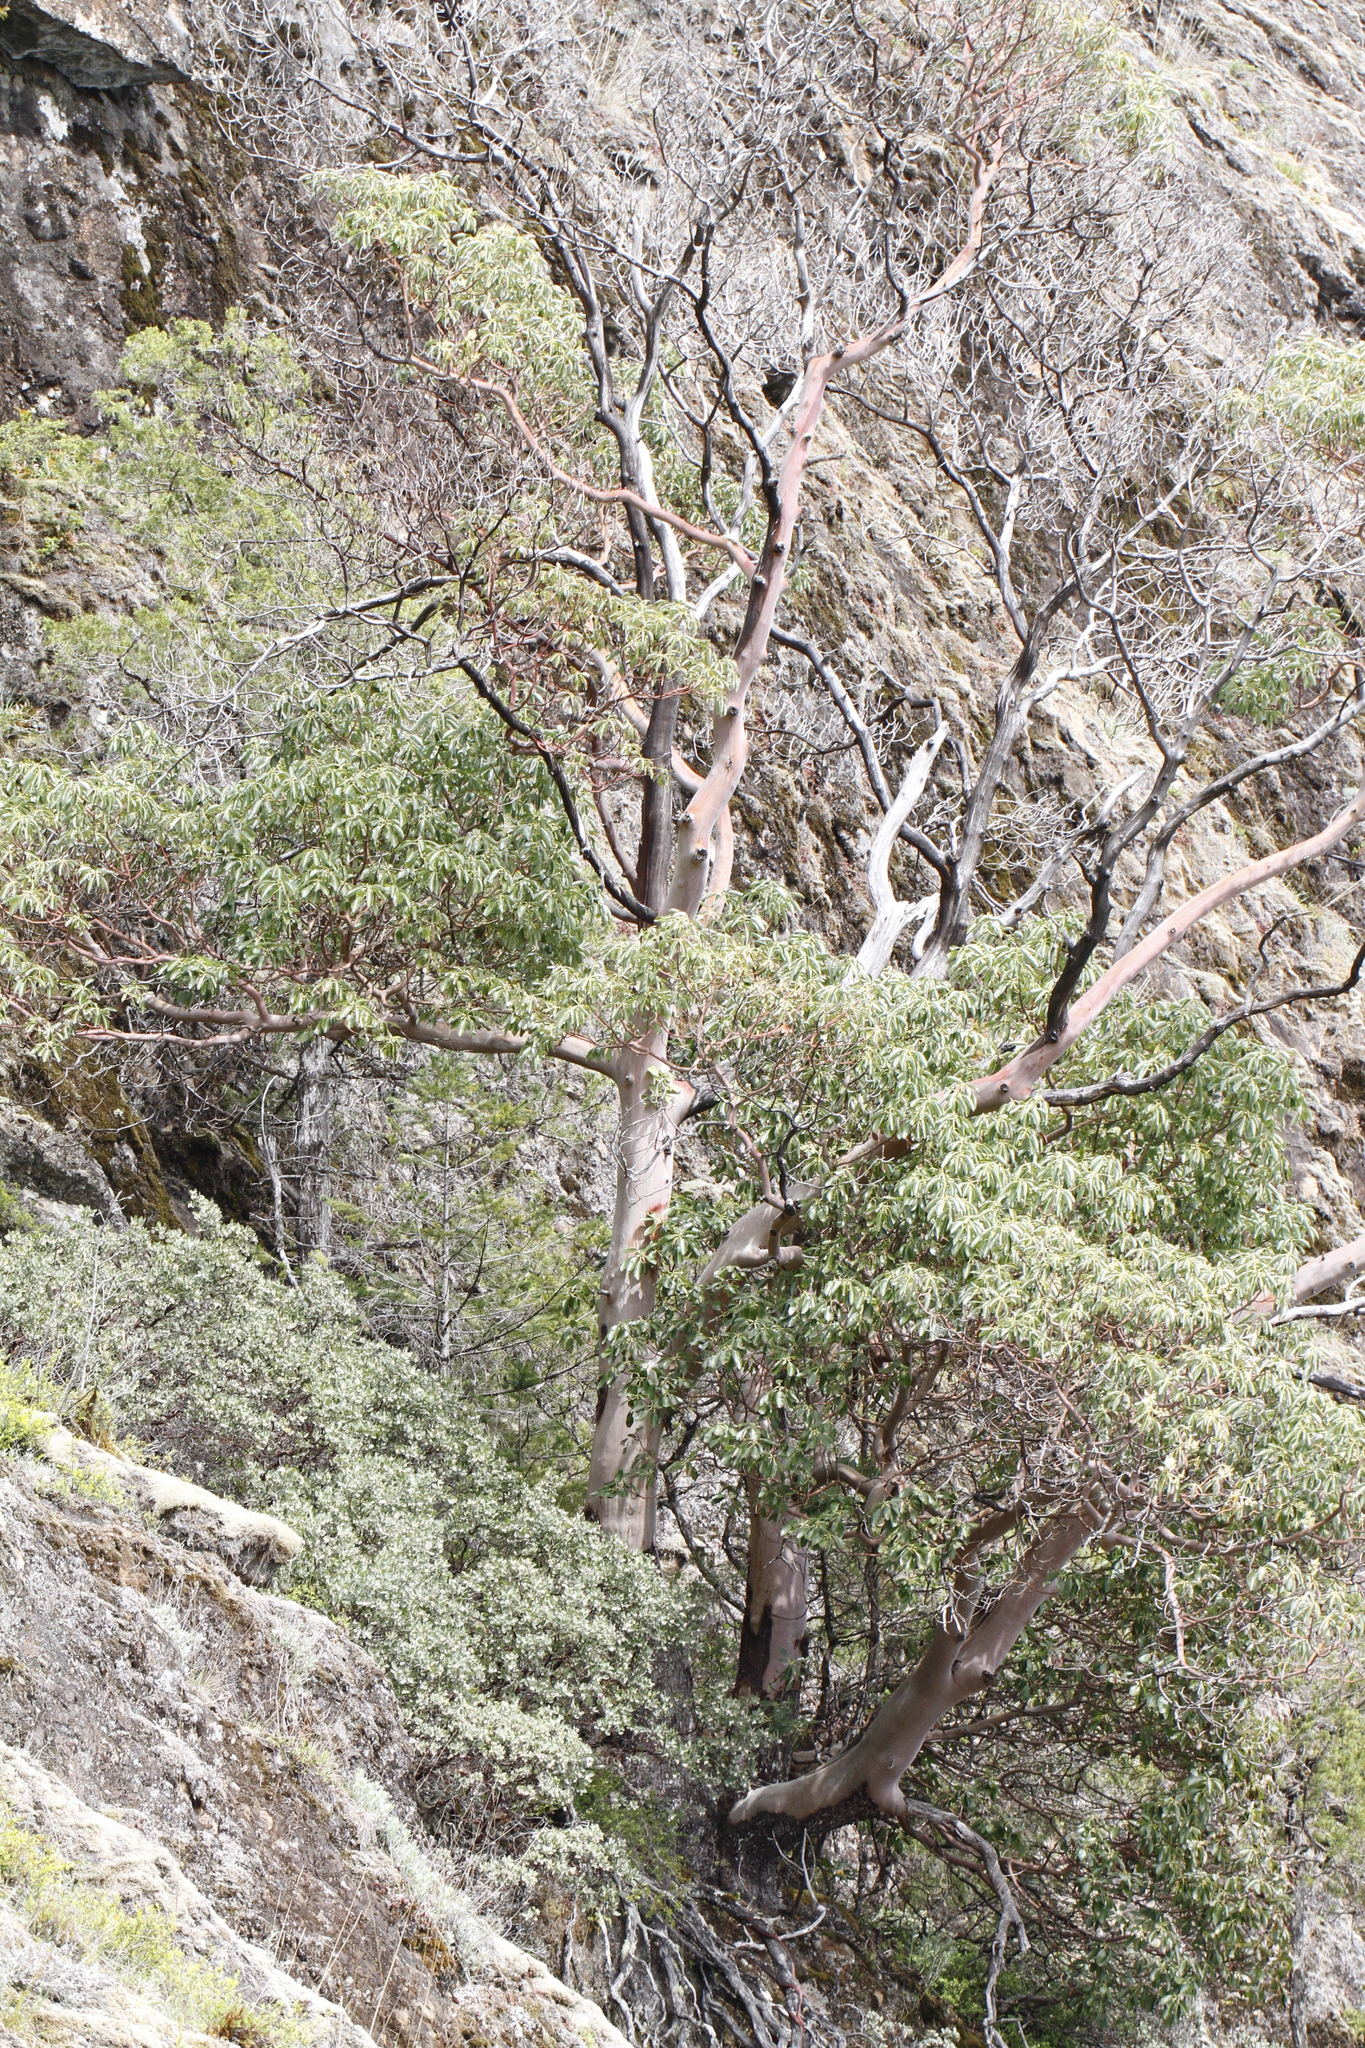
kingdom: Plantae
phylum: Tracheophyta
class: Magnoliopsida
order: Ericales
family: Ericaceae
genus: Arbutus
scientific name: Arbutus menziesii
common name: Pacific madrone
